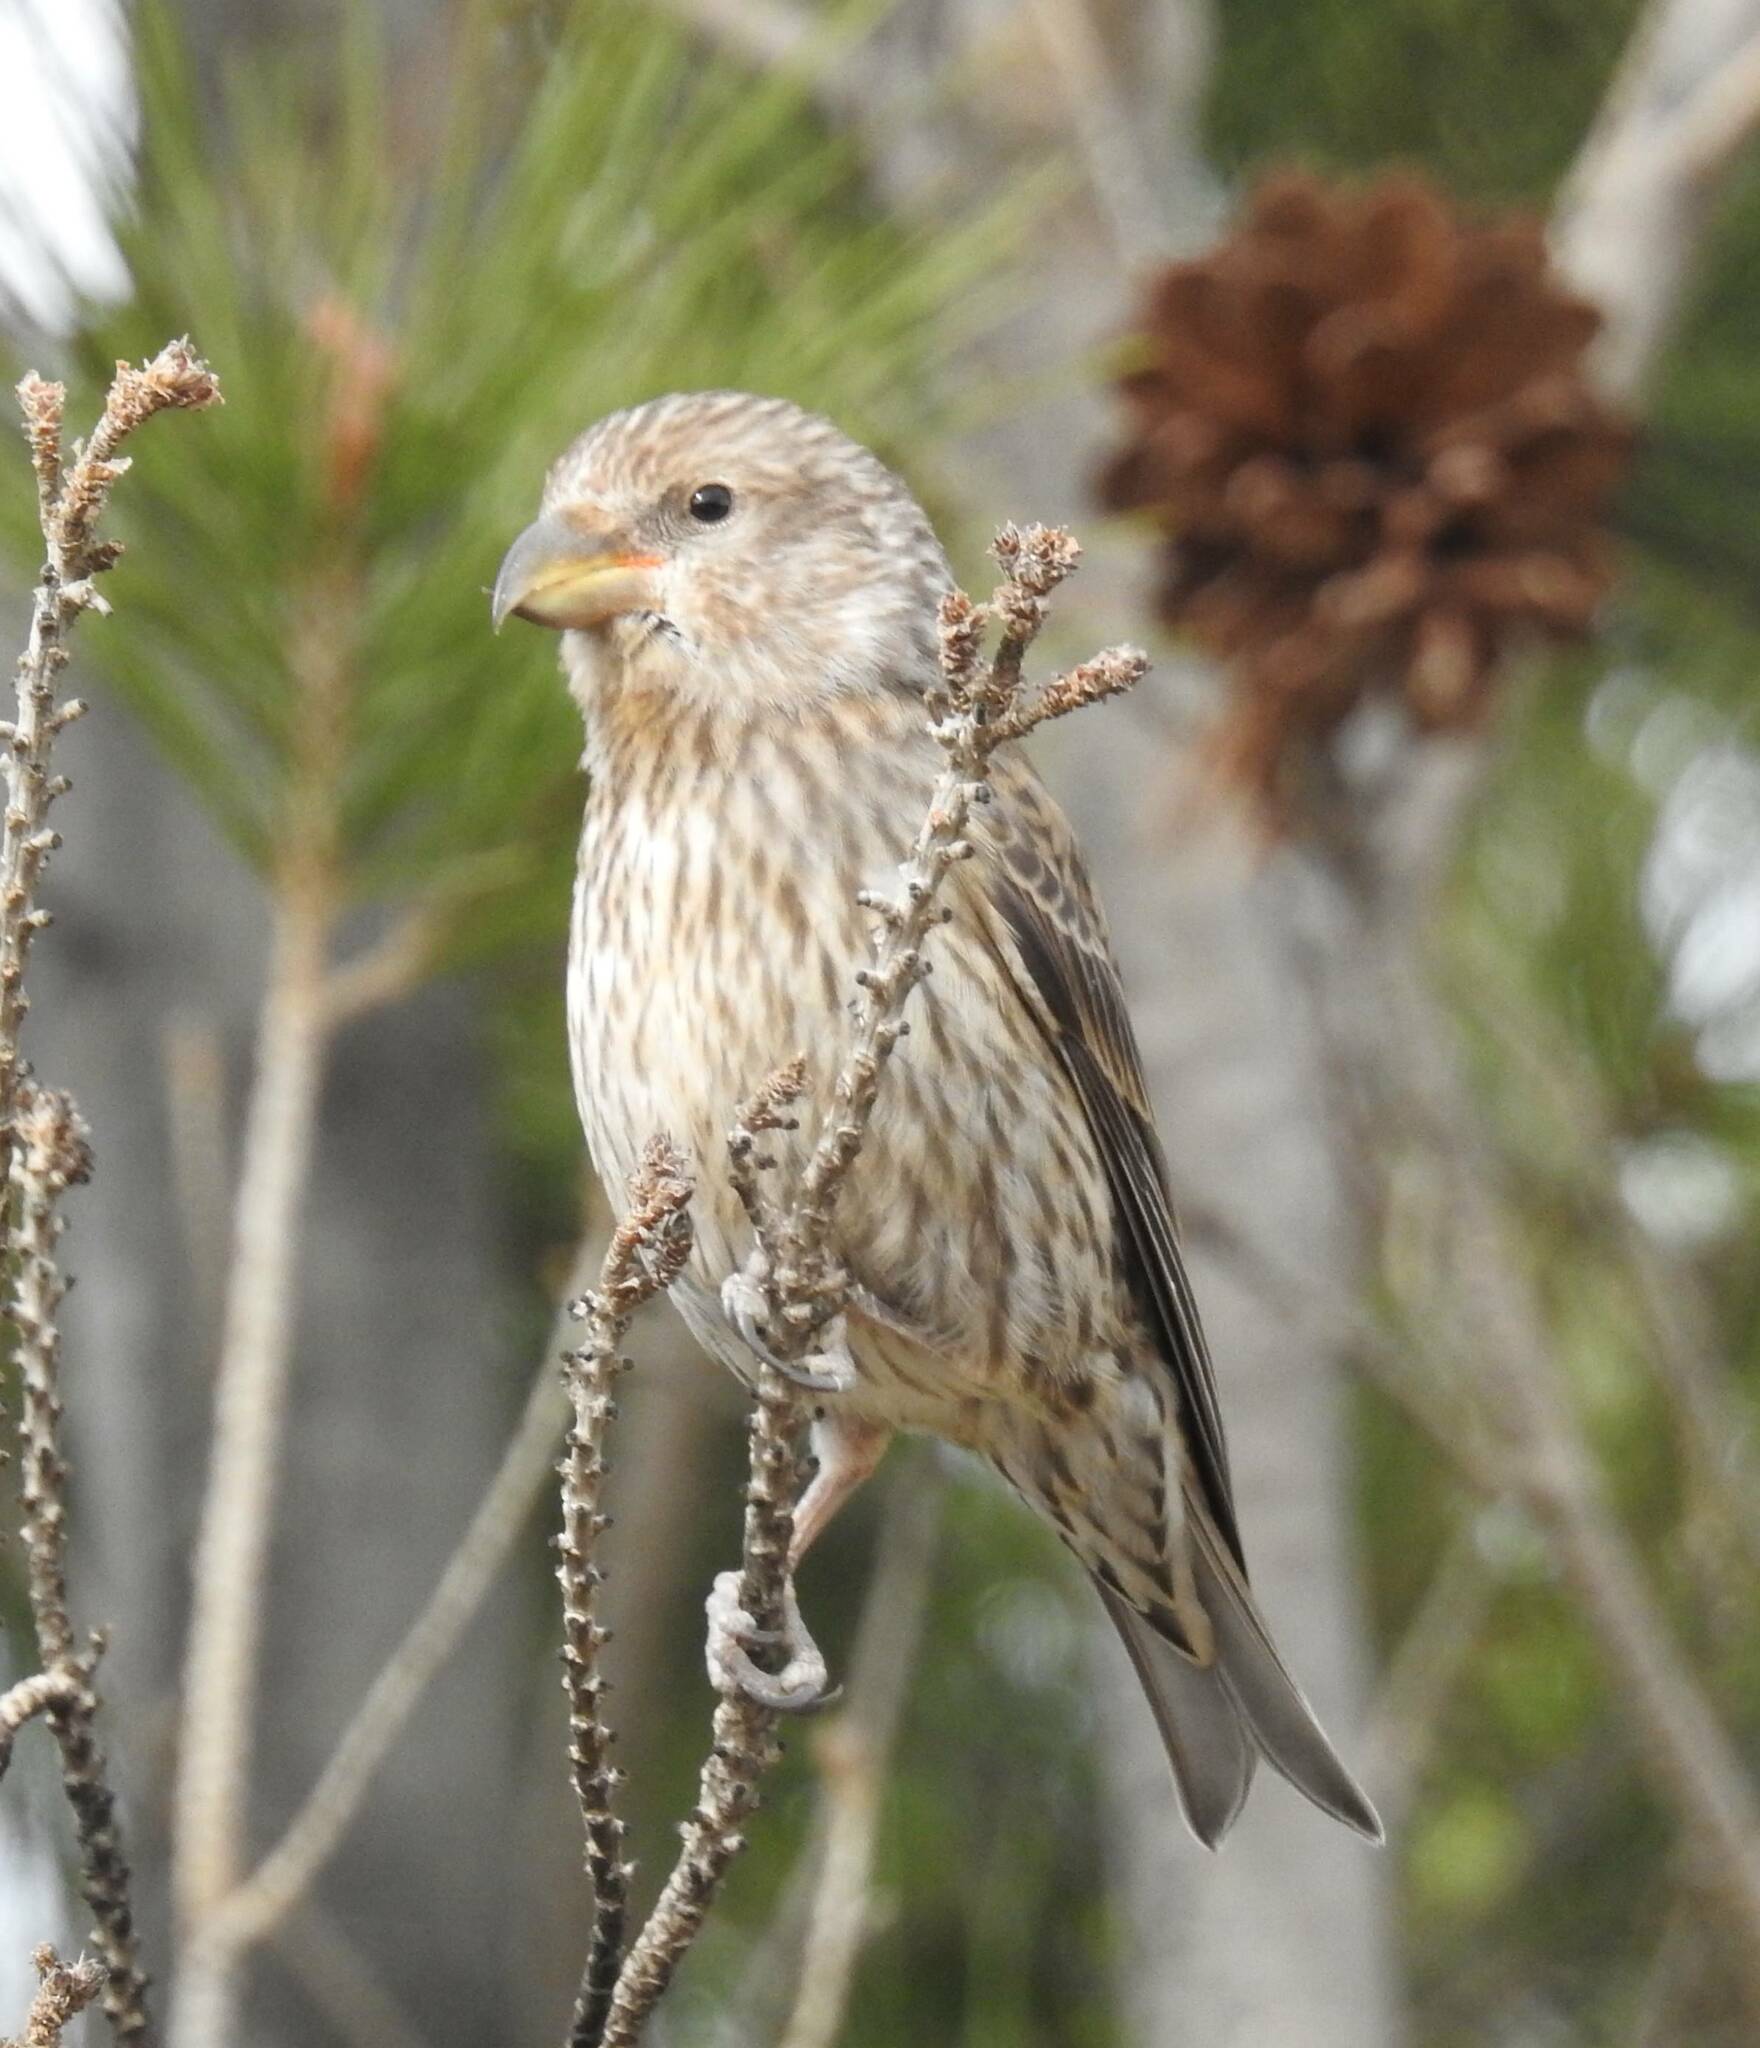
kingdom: Animalia
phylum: Chordata
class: Aves
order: Passeriformes
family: Fringillidae
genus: Loxia
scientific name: Loxia curvirostra
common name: Red crossbill
